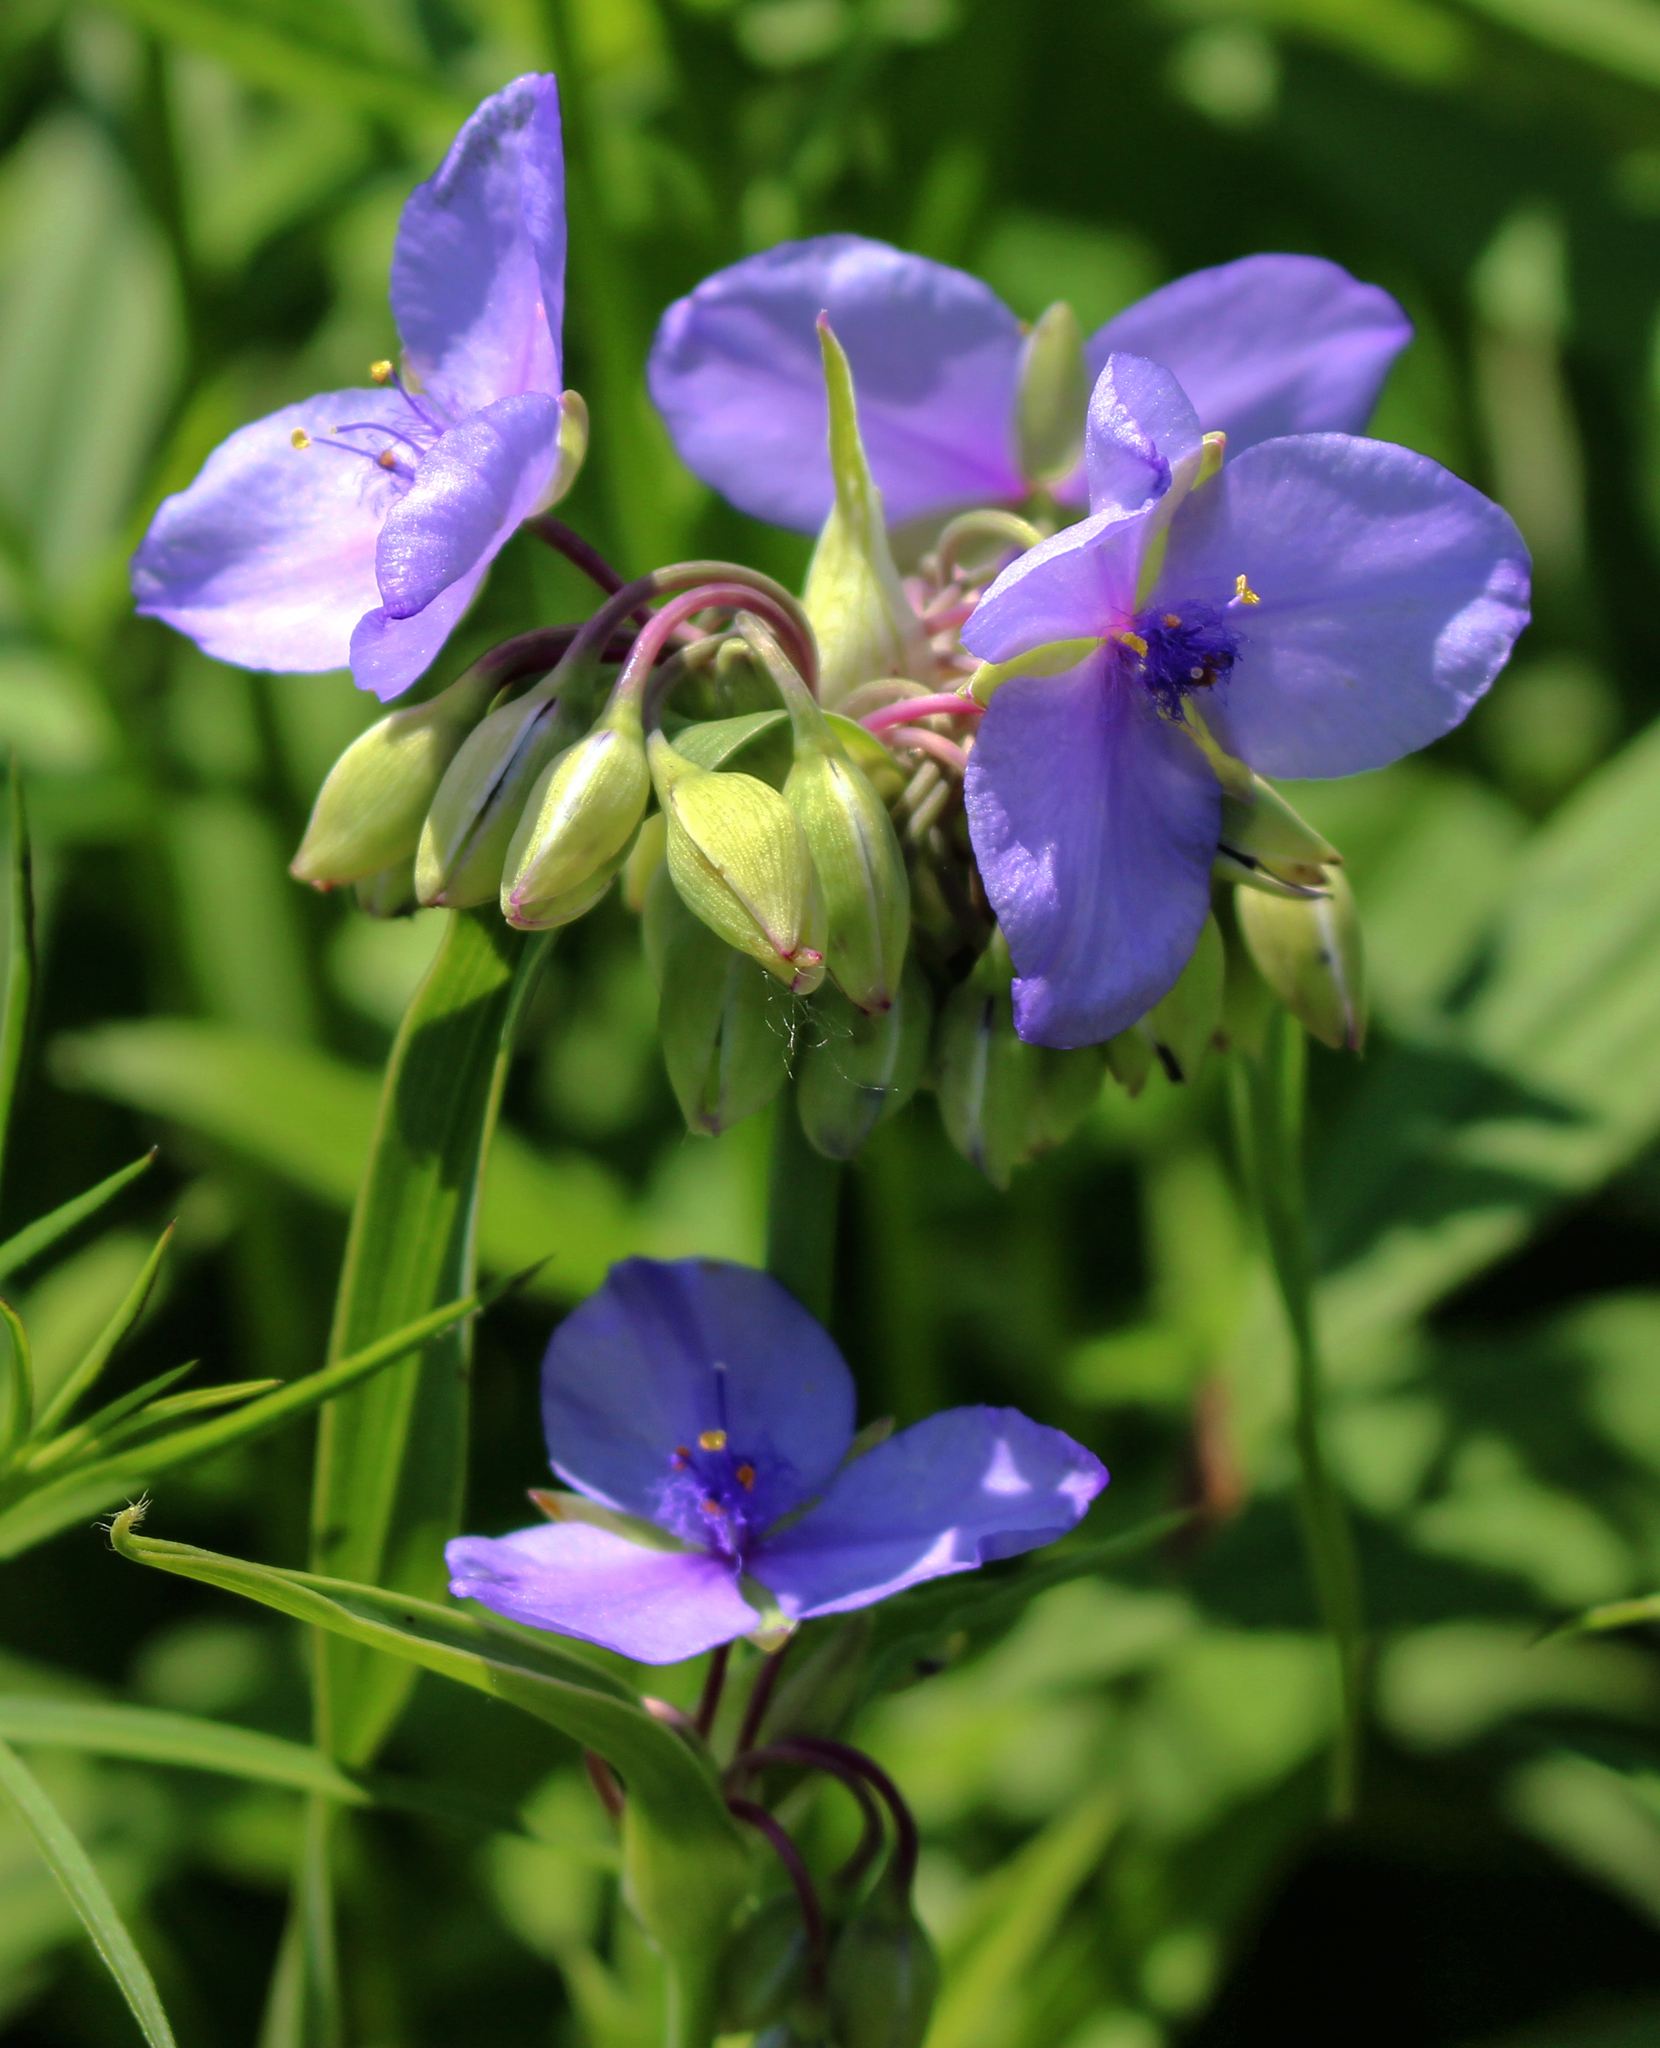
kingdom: Plantae
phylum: Tracheophyta
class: Liliopsida
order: Commelinales
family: Commelinaceae
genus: Tradescantia
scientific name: Tradescantia ohiensis
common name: Ohio spiderwort
